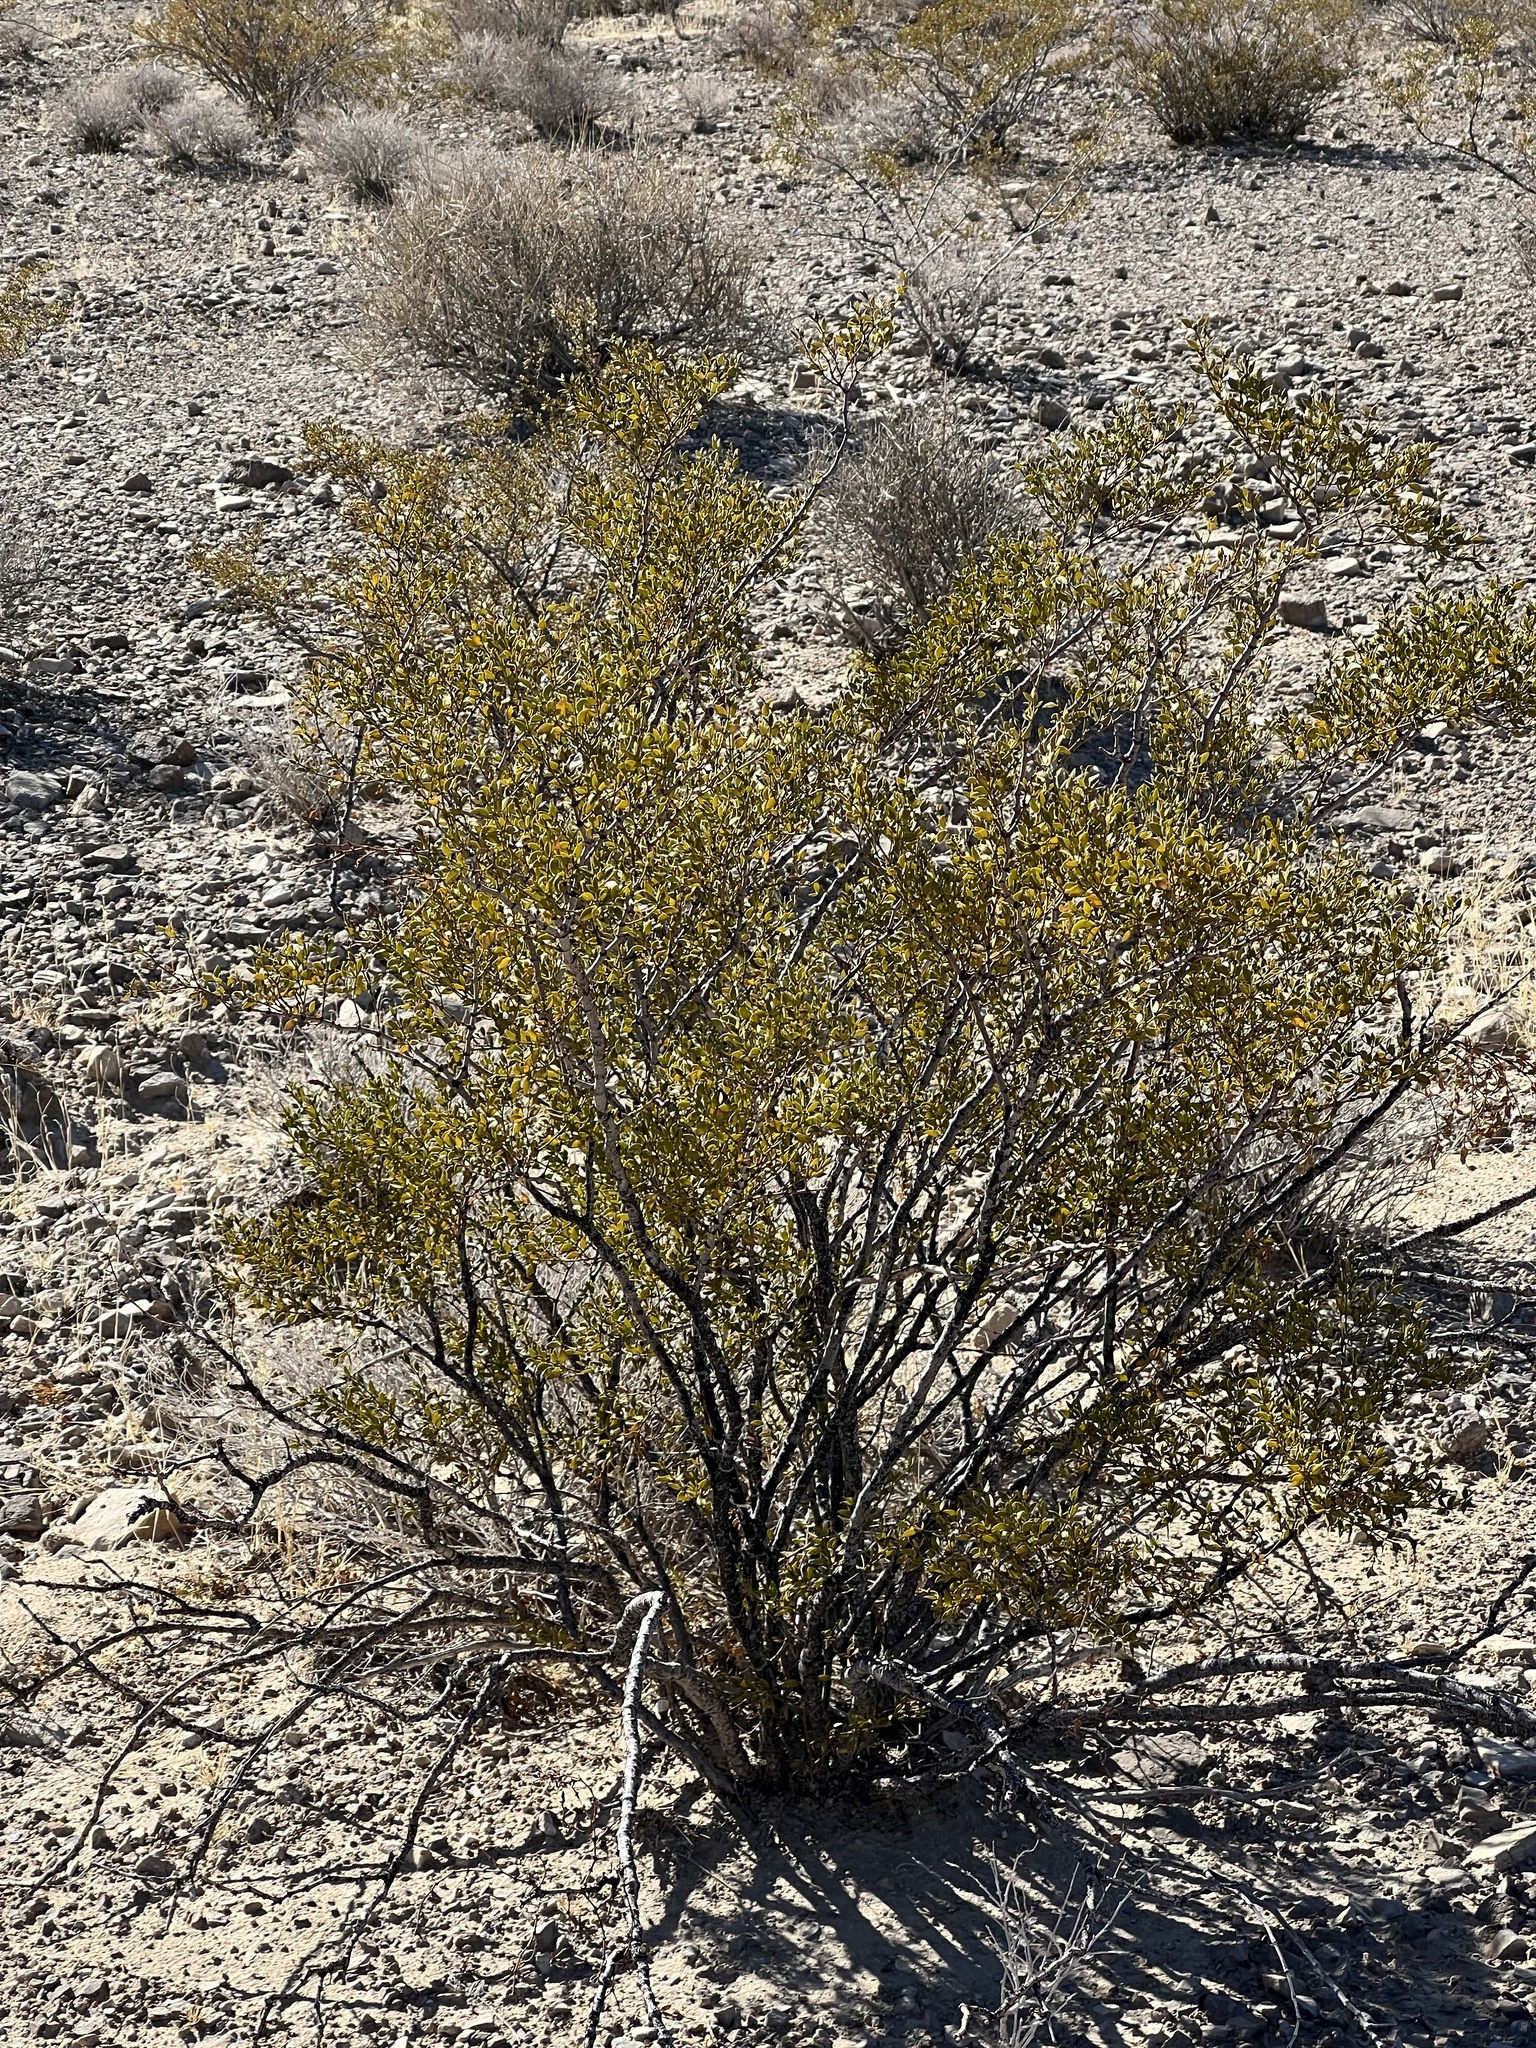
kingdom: Plantae
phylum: Tracheophyta
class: Magnoliopsida
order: Zygophyllales
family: Zygophyllaceae
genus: Larrea
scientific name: Larrea tridentata
